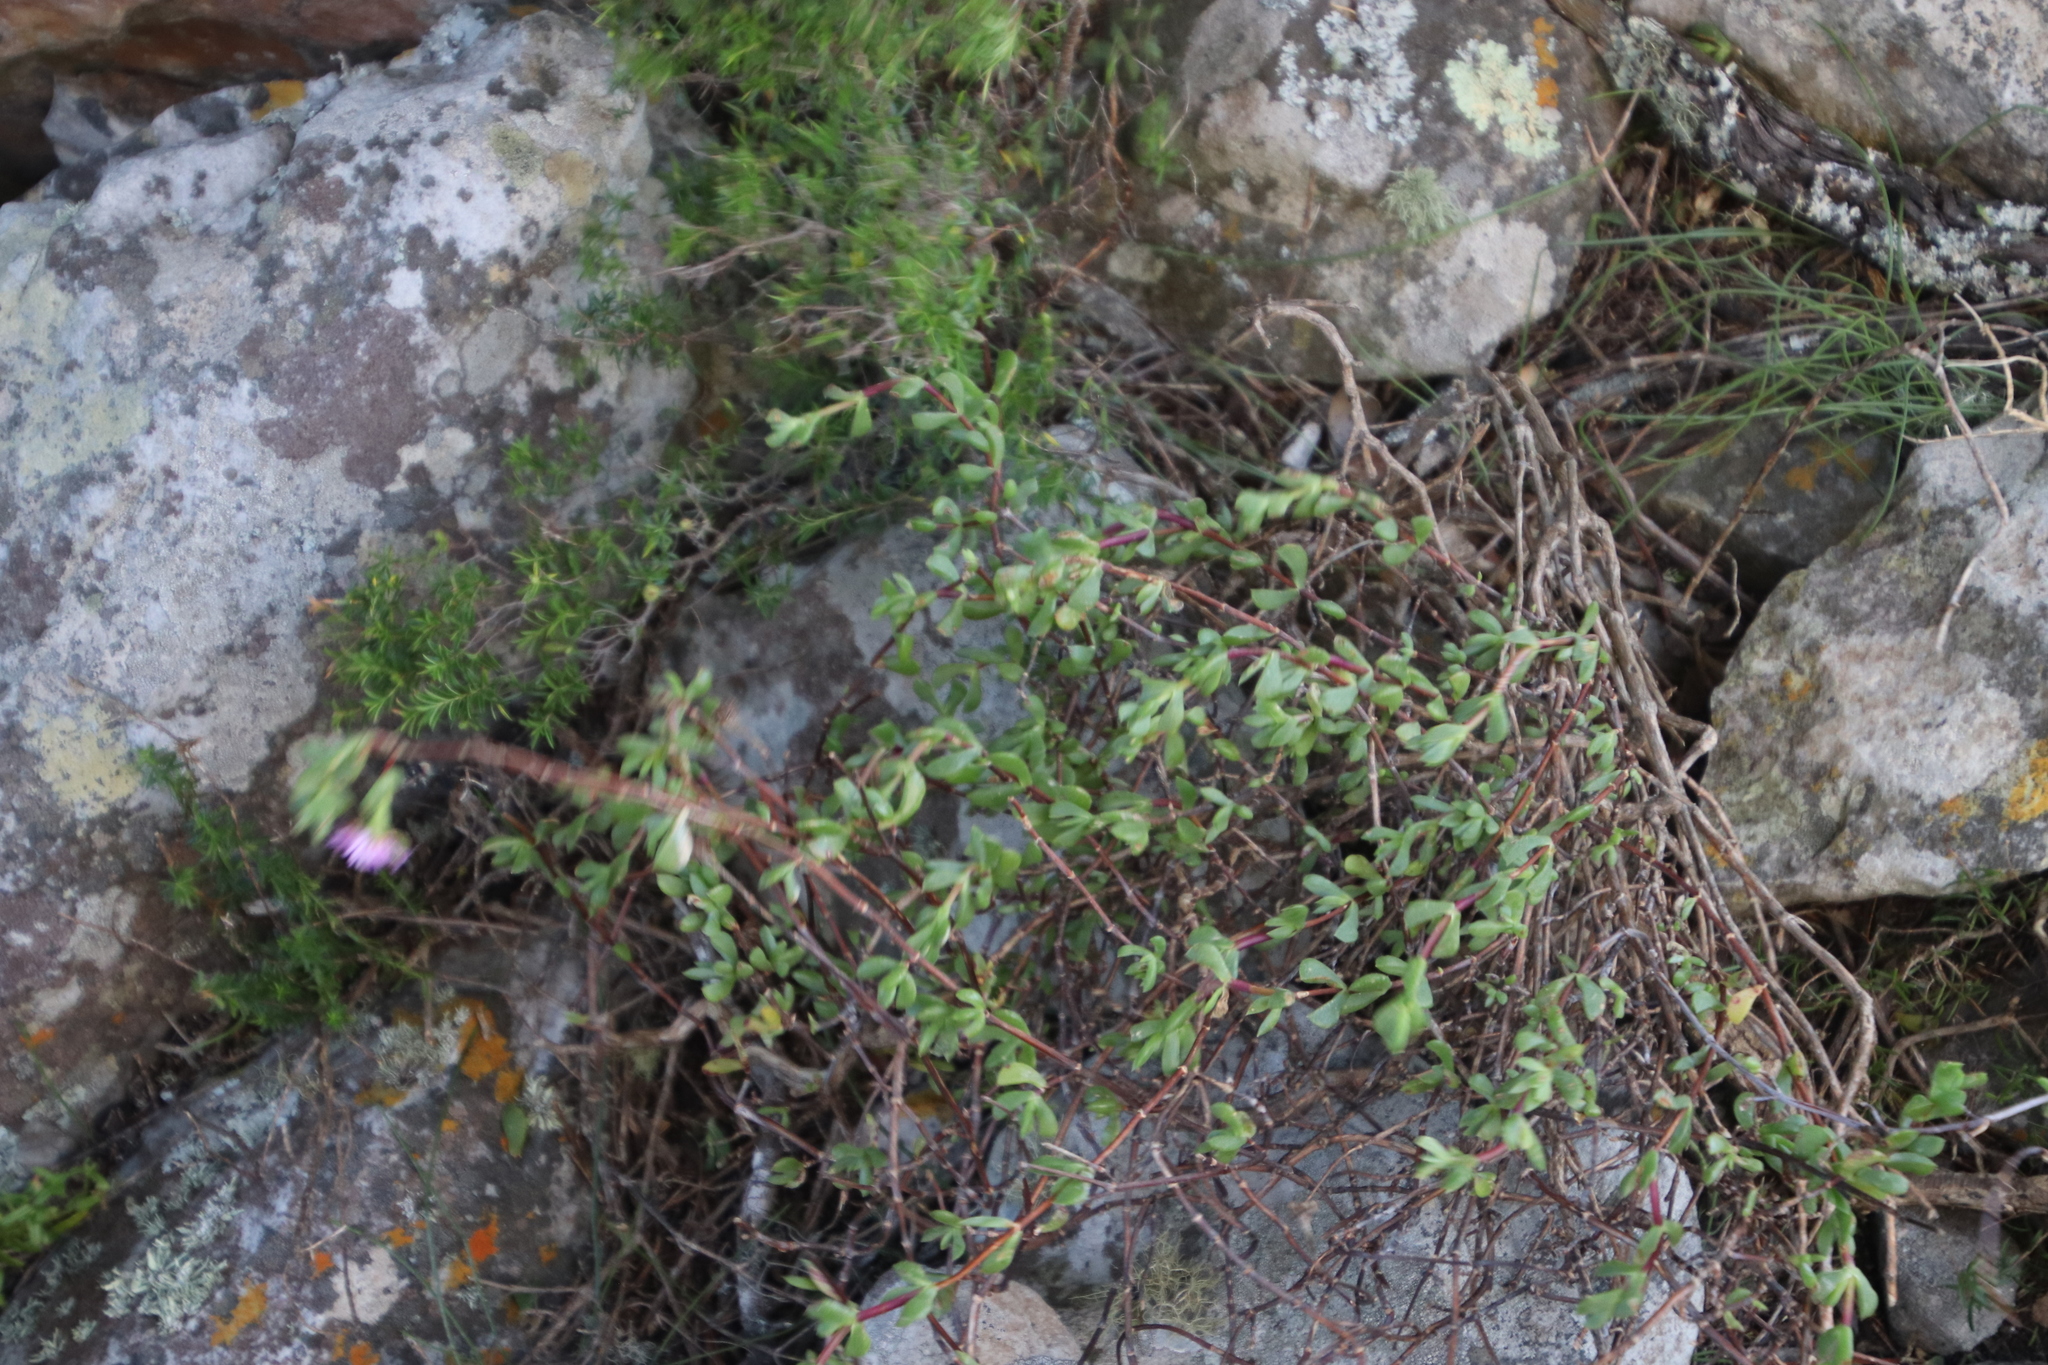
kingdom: Plantae
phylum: Tracheophyta
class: Magnoliopsida
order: Caryophyllales
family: Aizoaceae
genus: Oscularia
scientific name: Oscularia falciformis
